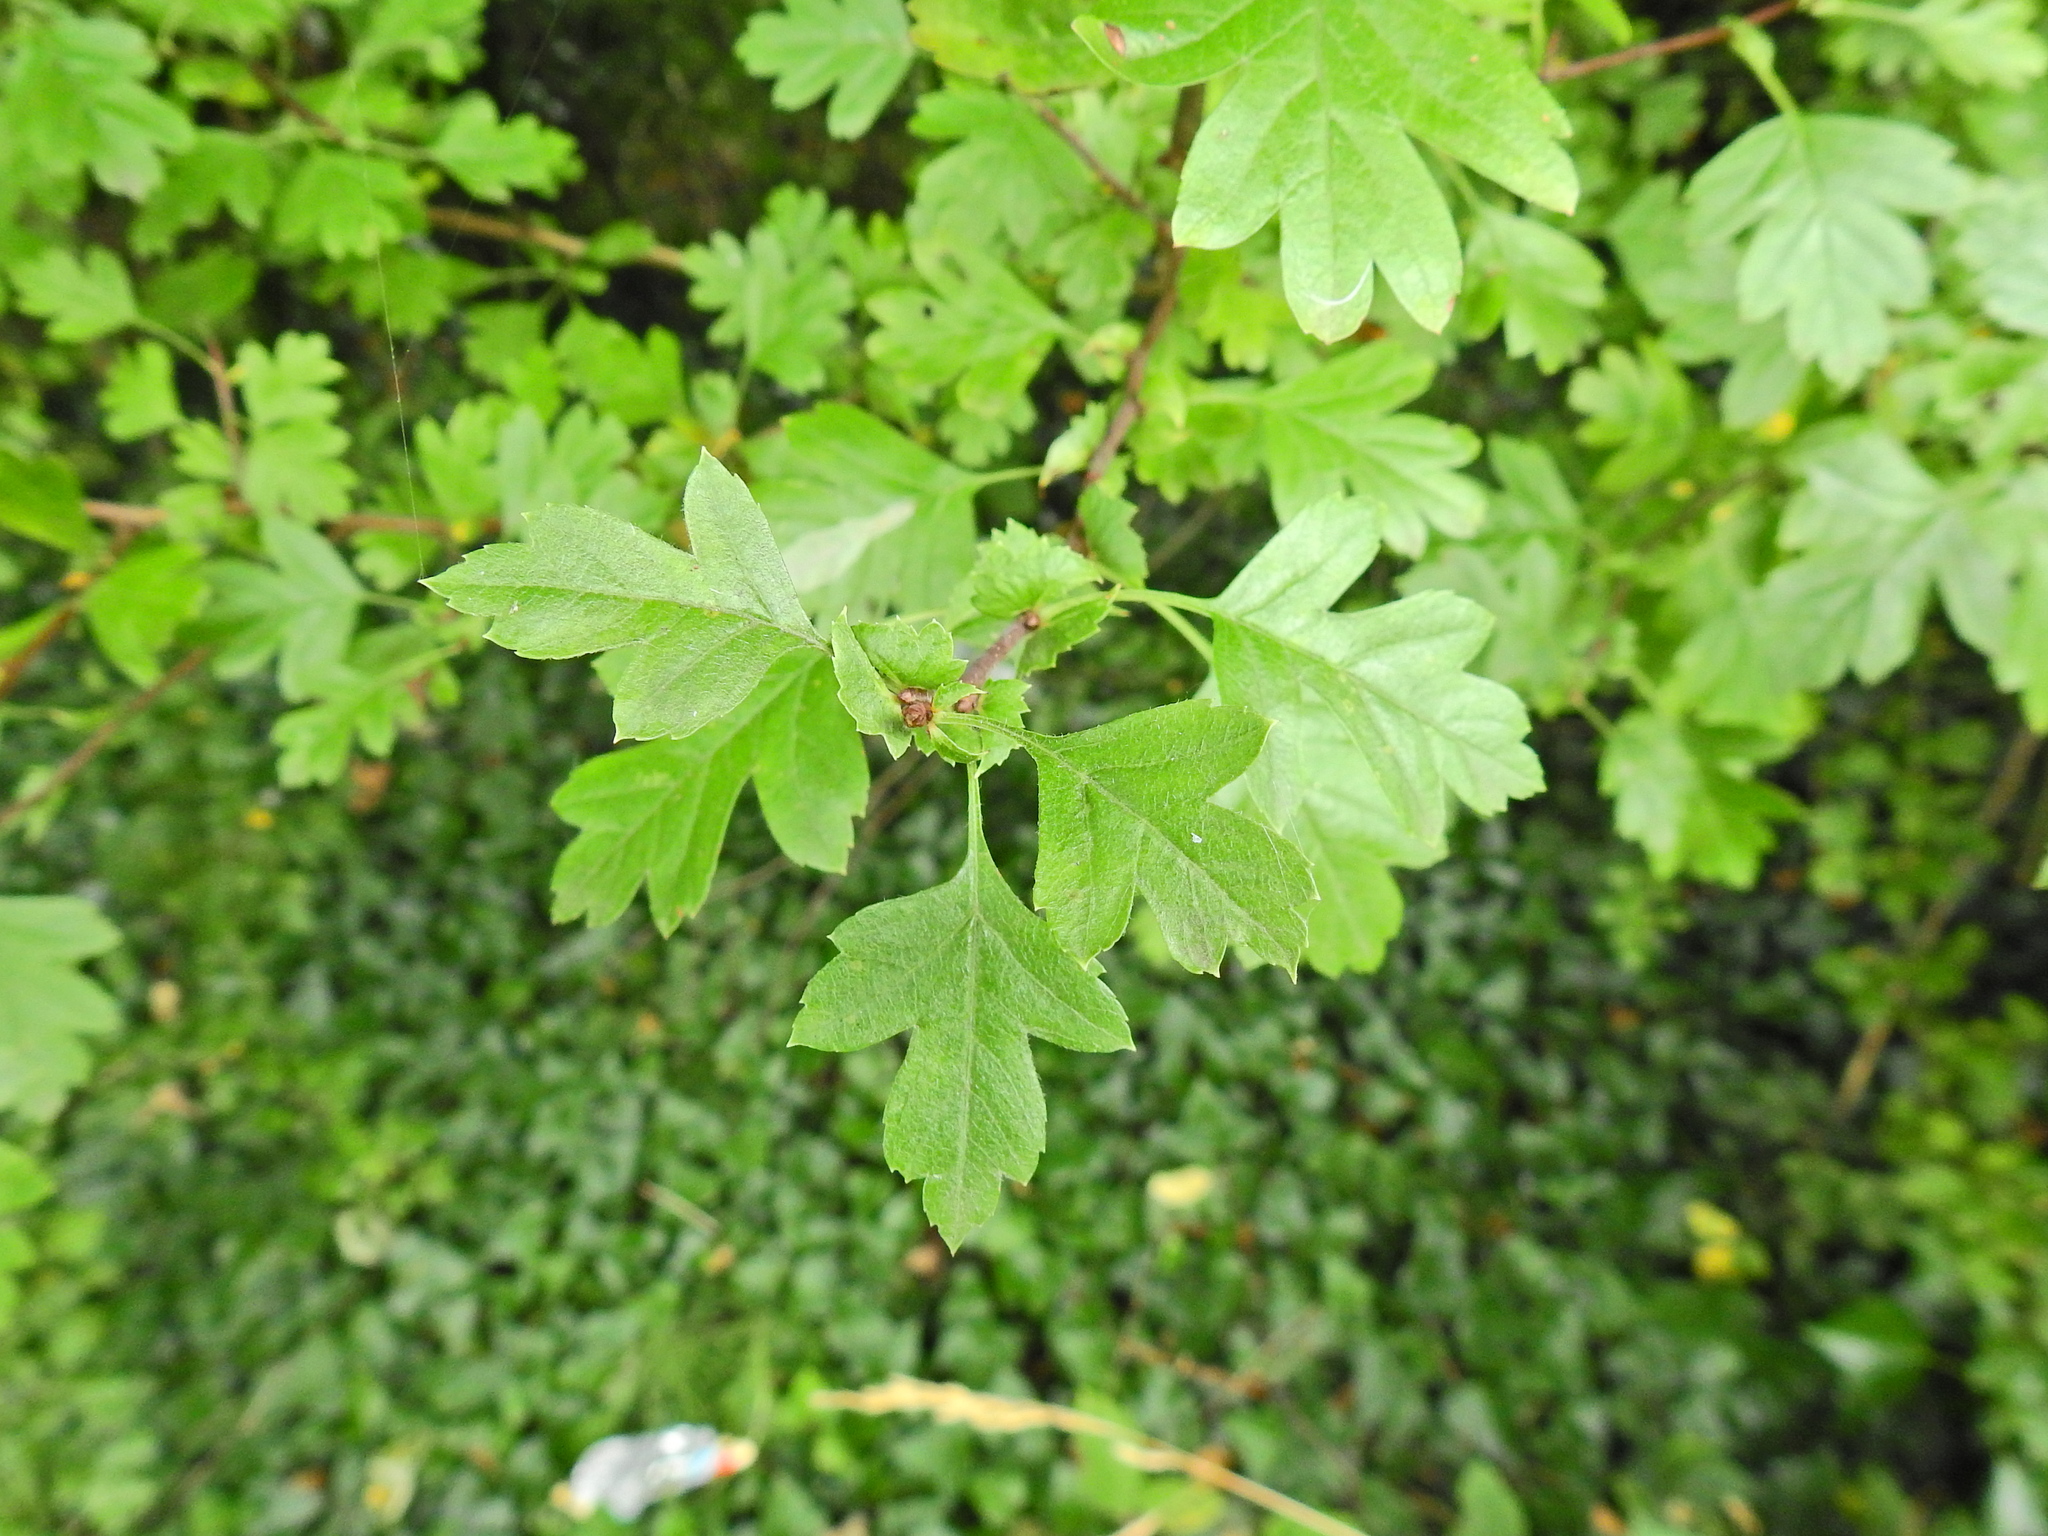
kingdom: Animalia
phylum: Arthropoda
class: Insecta
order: Lepidoptera
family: Gracillariidae
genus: Phyllonorycter
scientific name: Phyllonorycter leucographella
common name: Firethorn leaf-miner
